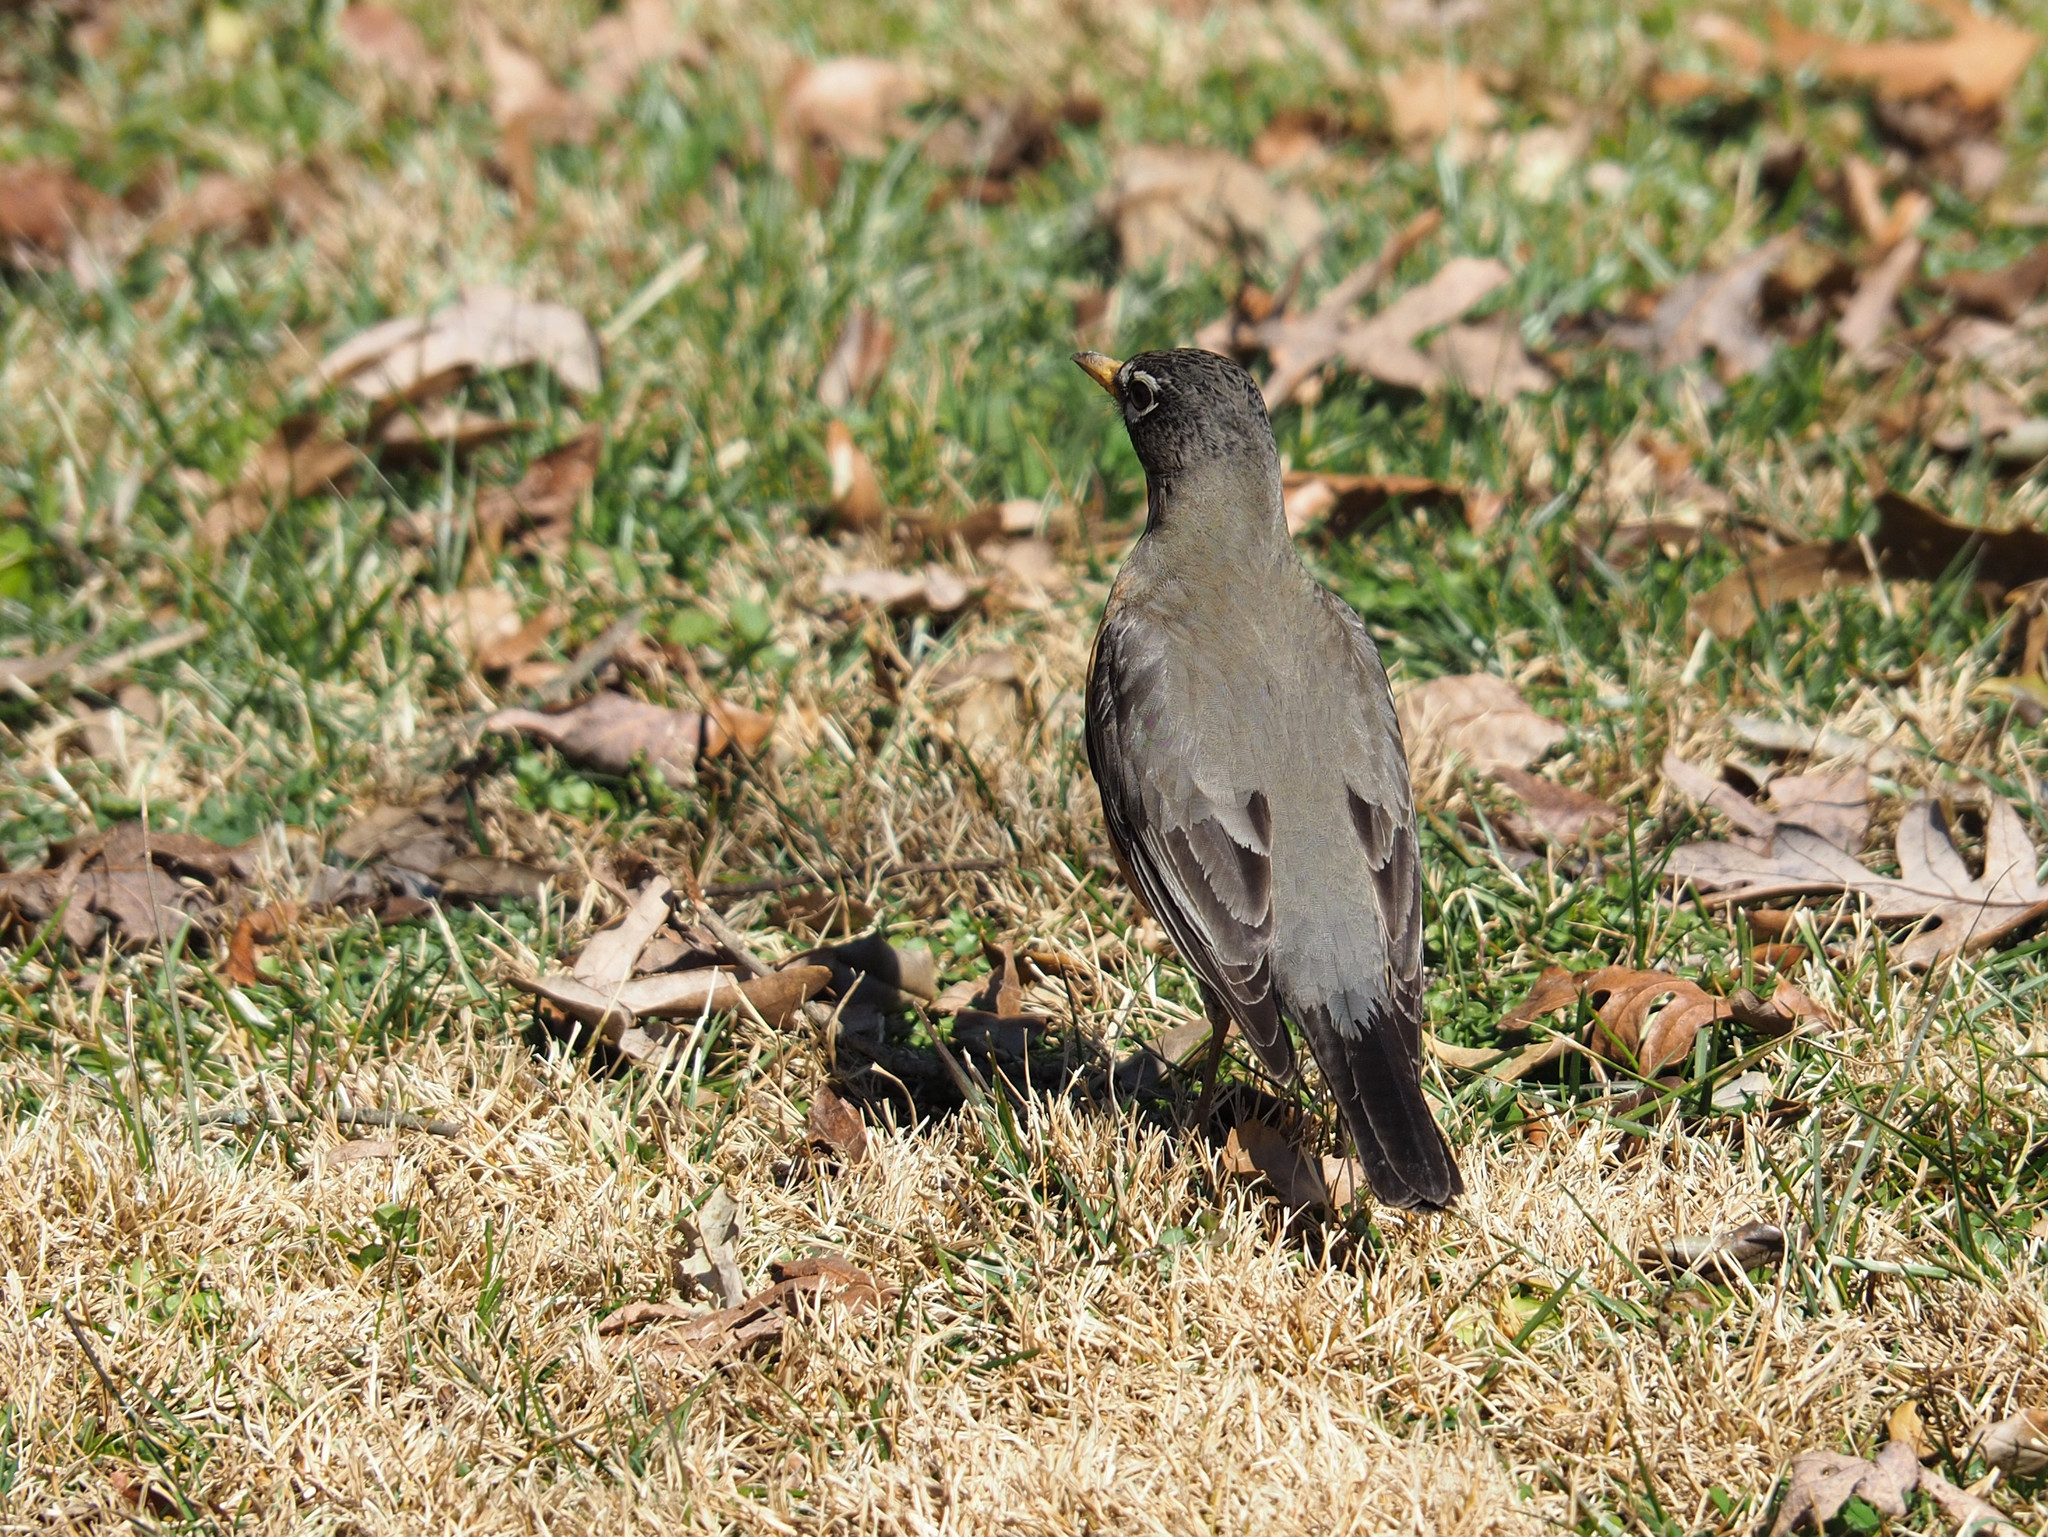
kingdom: Animalia
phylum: Chordata
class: Aves
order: Passeriformes
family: Turdidae
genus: Turdus
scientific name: Turdus migratorius
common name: American robin
